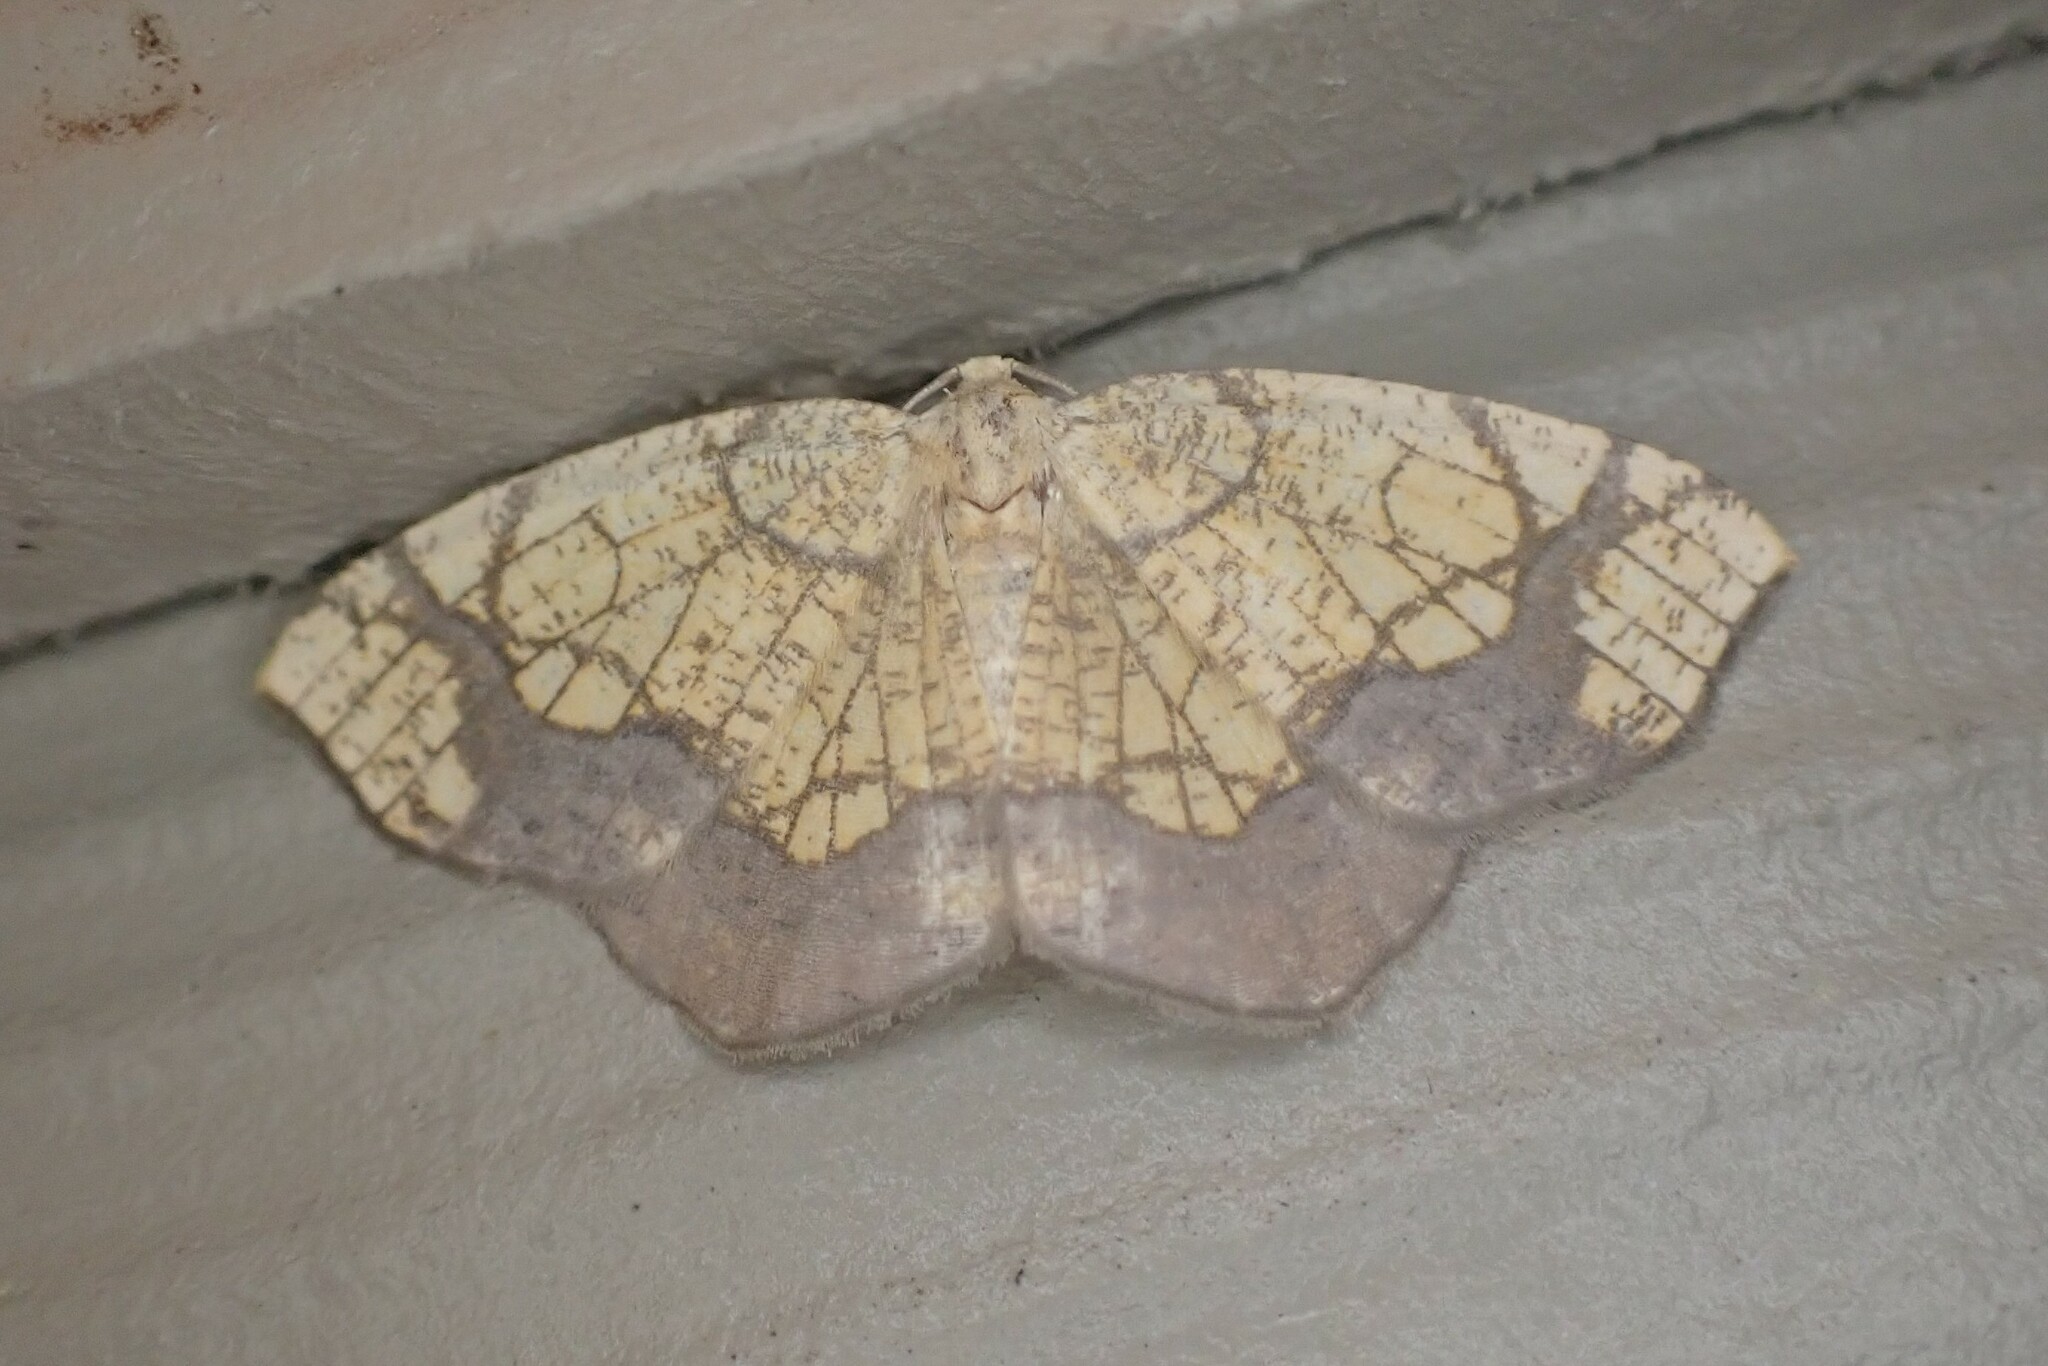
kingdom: Animalia
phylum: Arthropoda
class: Insecta
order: Lepidoptera
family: Geometridae
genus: Nematocampa
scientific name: Nematocampa resistaria
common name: Horned spanworm moth
